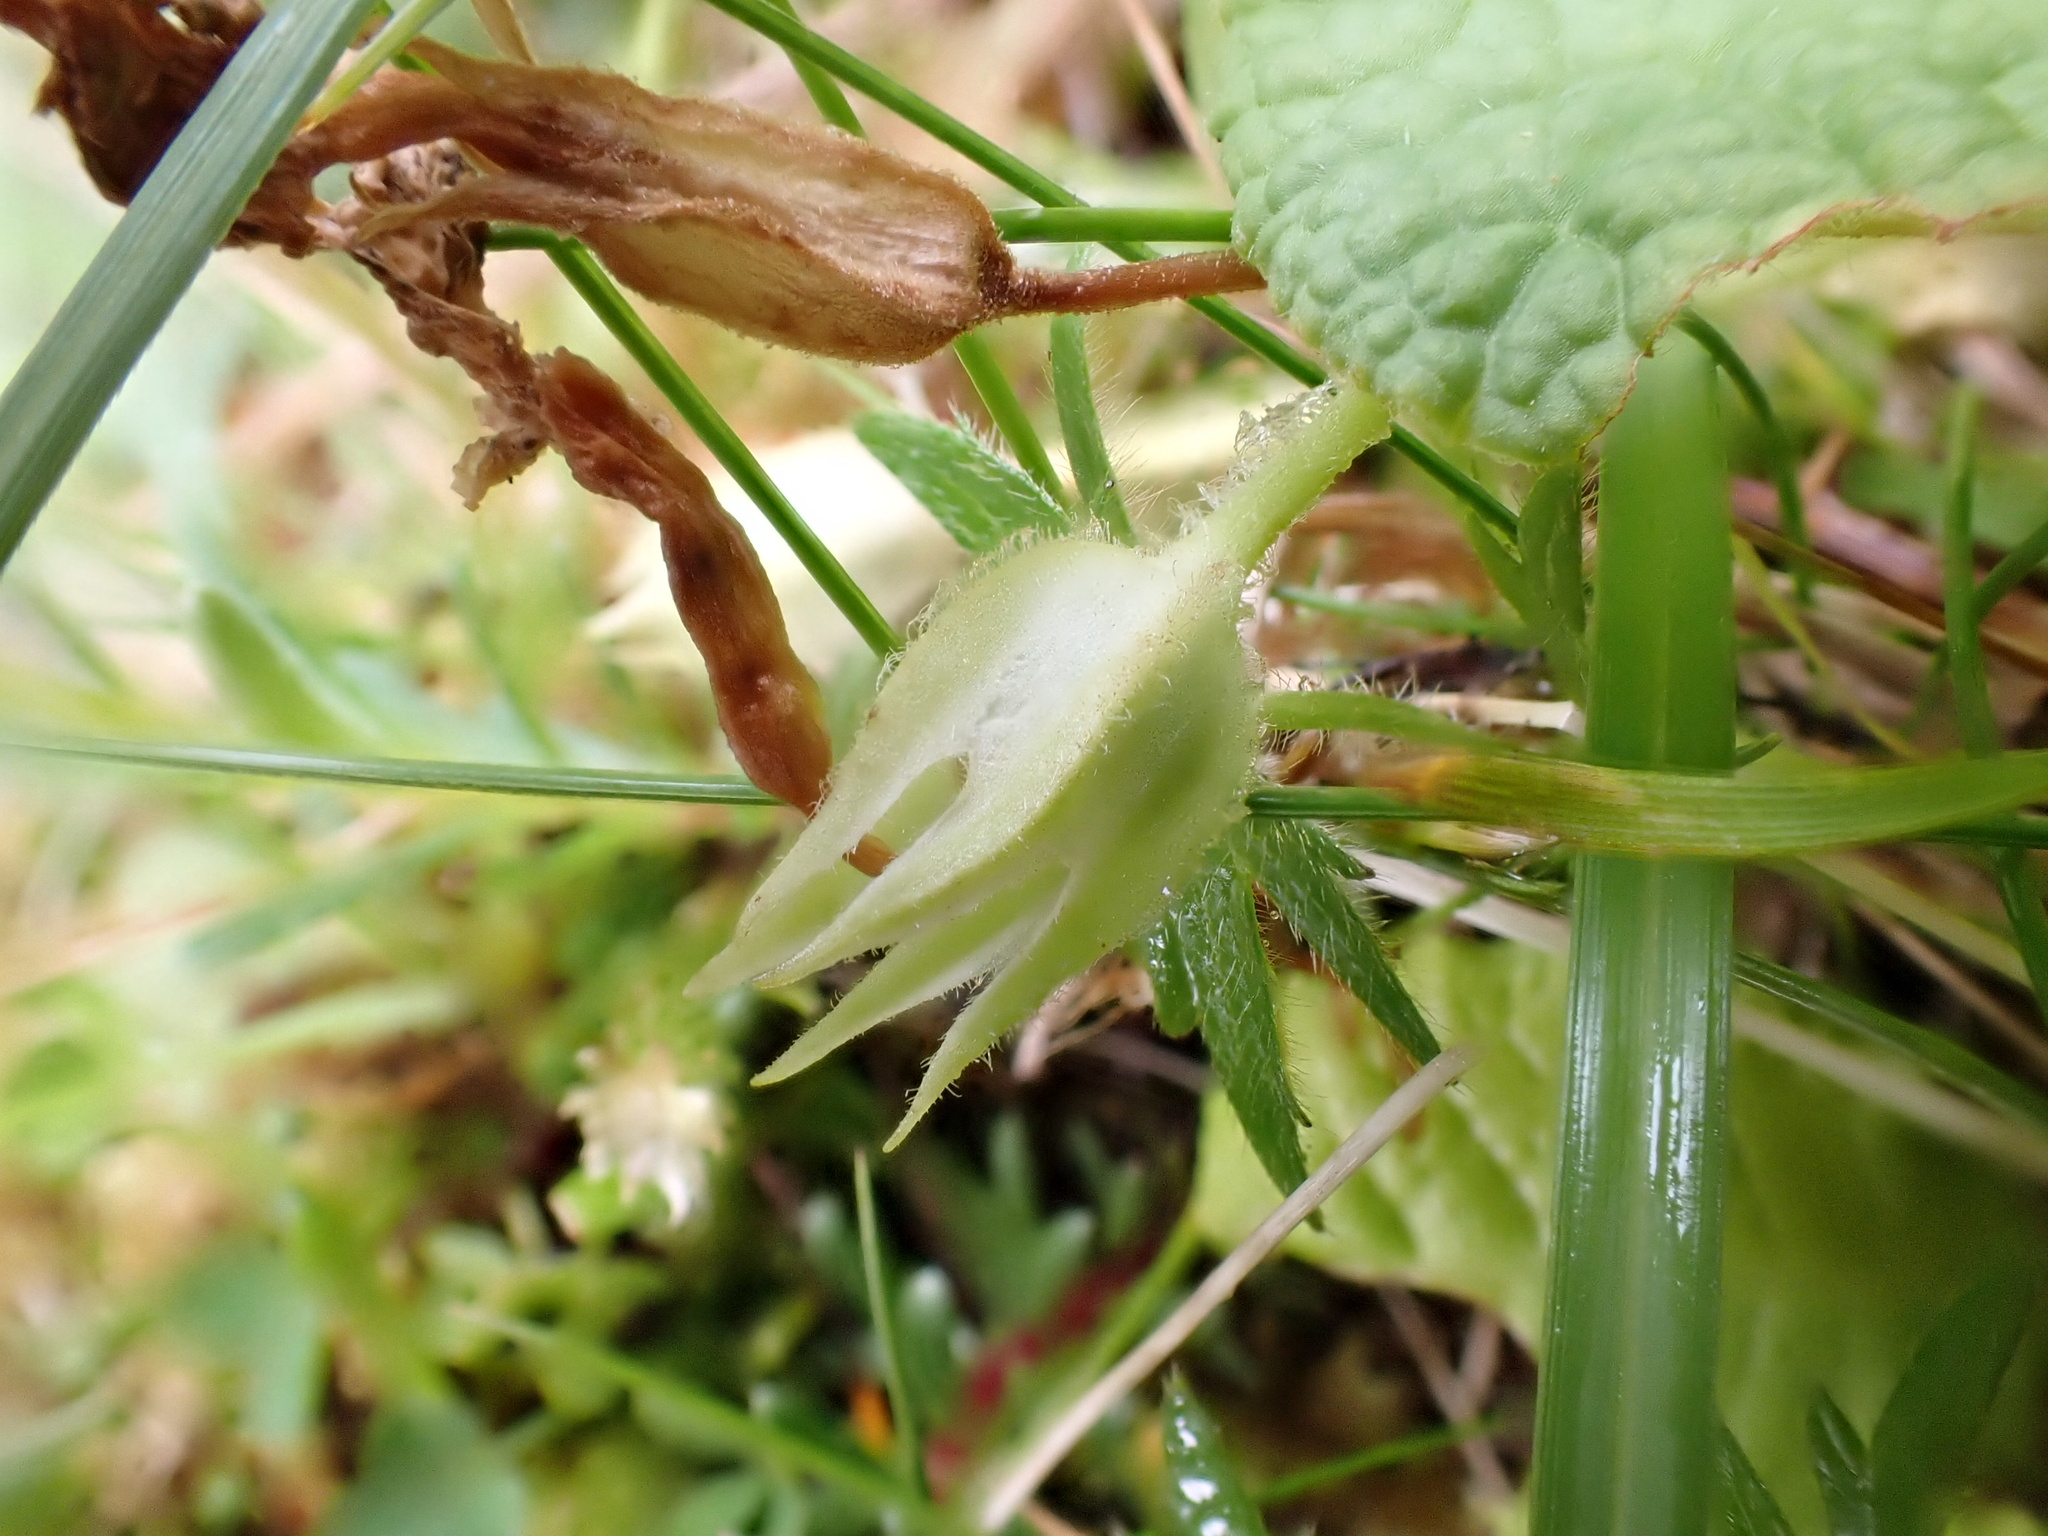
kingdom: Plantae
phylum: Tracheophyta
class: Magnoliopsida
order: Ericales
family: Primulaceae
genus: Primula
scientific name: Primula vulgaris
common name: Primrose
